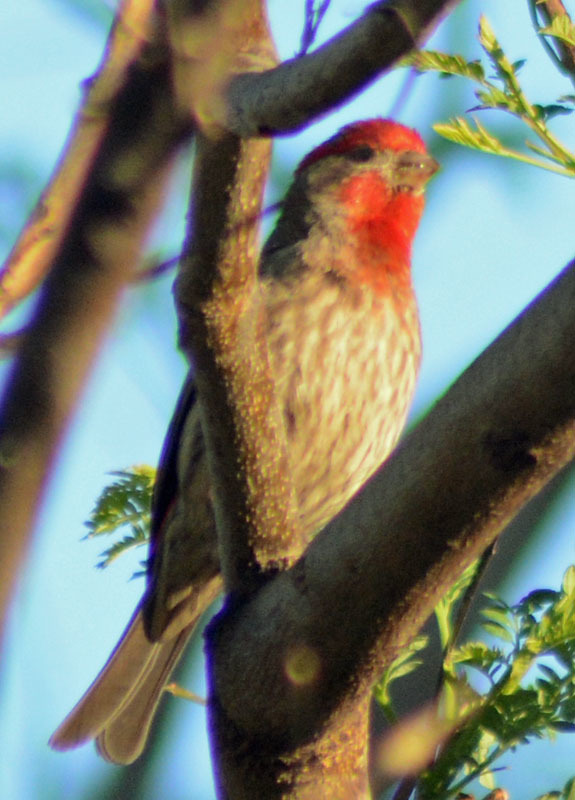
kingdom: Animalia
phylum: Chordata
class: Aves
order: Passeriformes
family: Fringillidae
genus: Haemorhous
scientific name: Haemorhous mexicanus
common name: House finch
